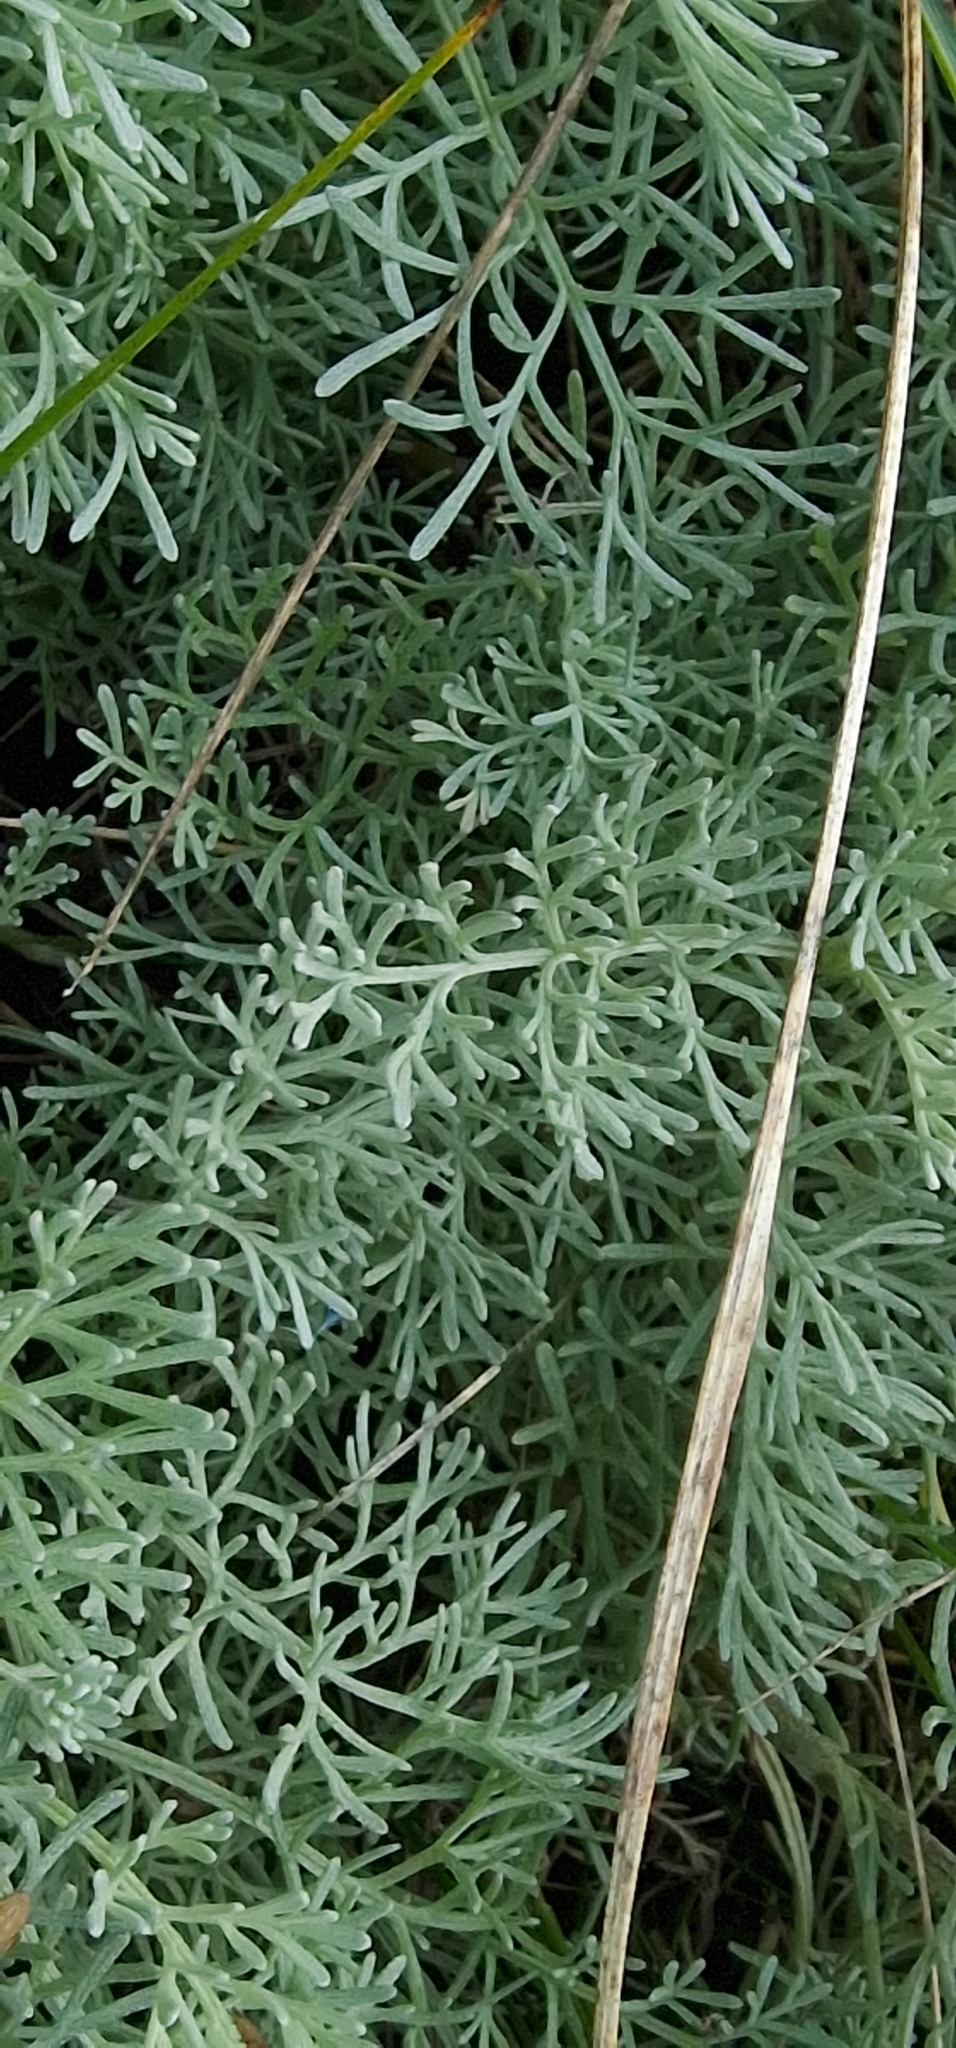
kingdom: Plantae
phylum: Tracheophyta
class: Magnoliopsida
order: Asterales
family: Asteraceae
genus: Artemisia
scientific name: Artemisia maritima
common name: Wormseed
